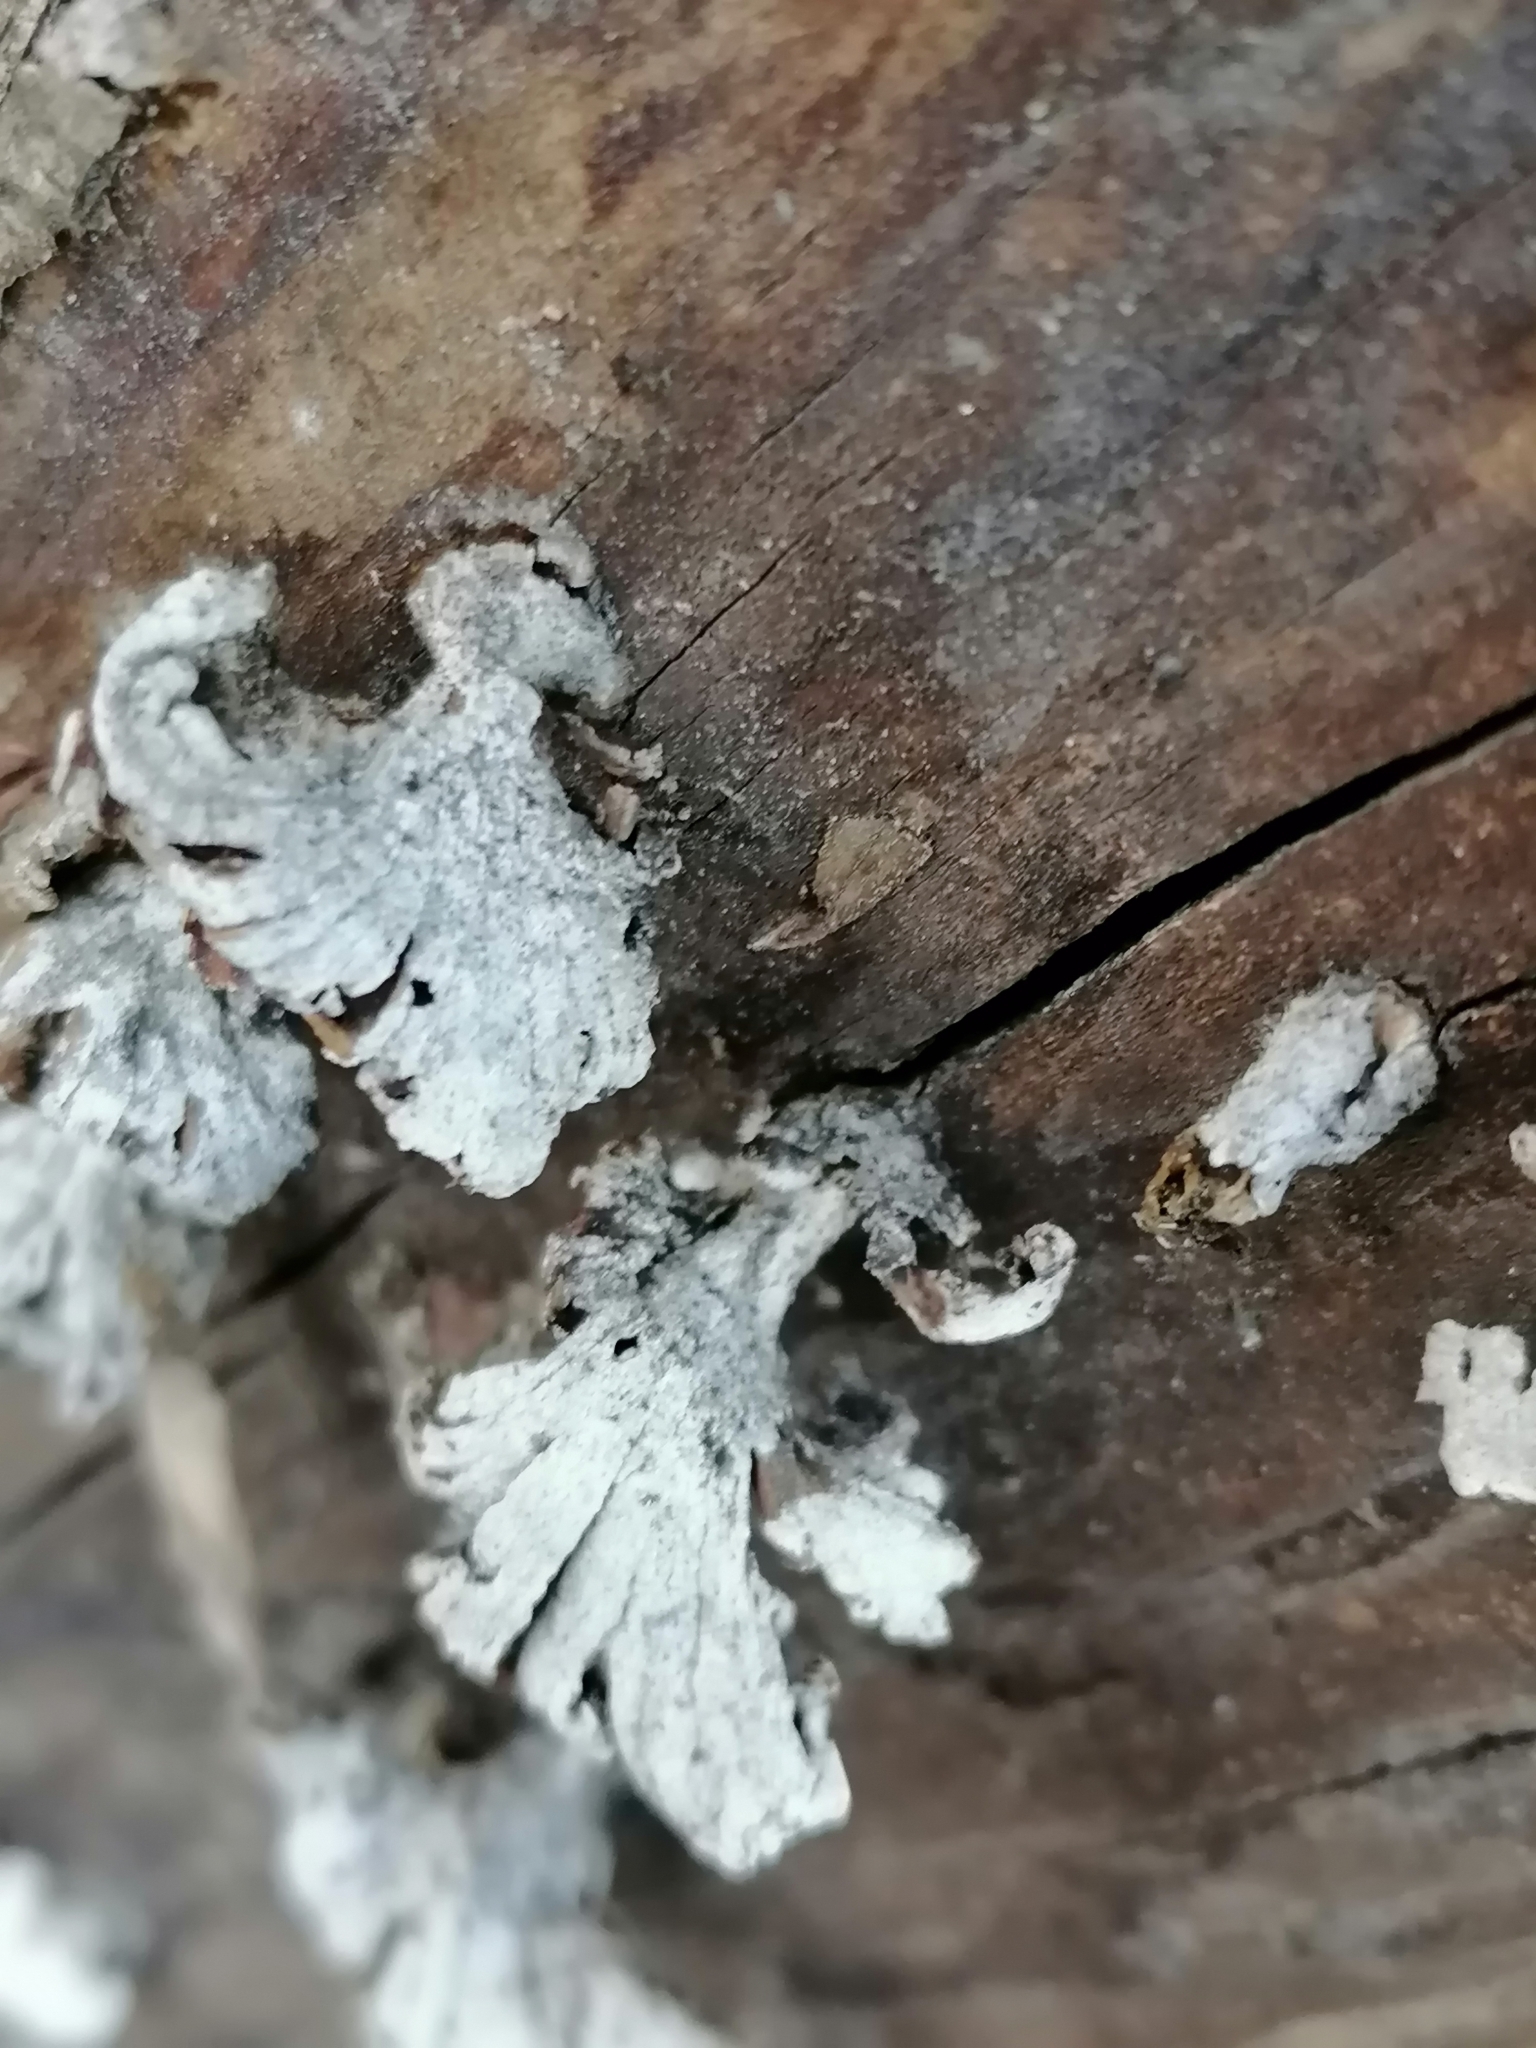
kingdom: Fungi
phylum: Basidiomycota
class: Agaricomycetes
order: Agaricales
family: Schizophyllaceae
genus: Schizophyllum
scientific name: Schizophyllum commune
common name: Common porecrust
